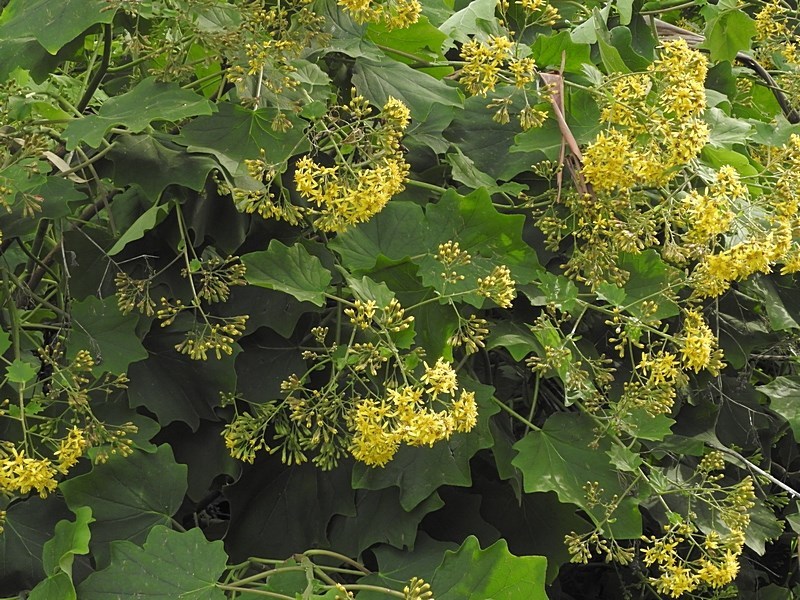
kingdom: Plantae
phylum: Tracheophyta
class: Magnoliopsida
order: Asterales
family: Asteraceae
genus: Roldana
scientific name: Roldana petasitis
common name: California-geranium
